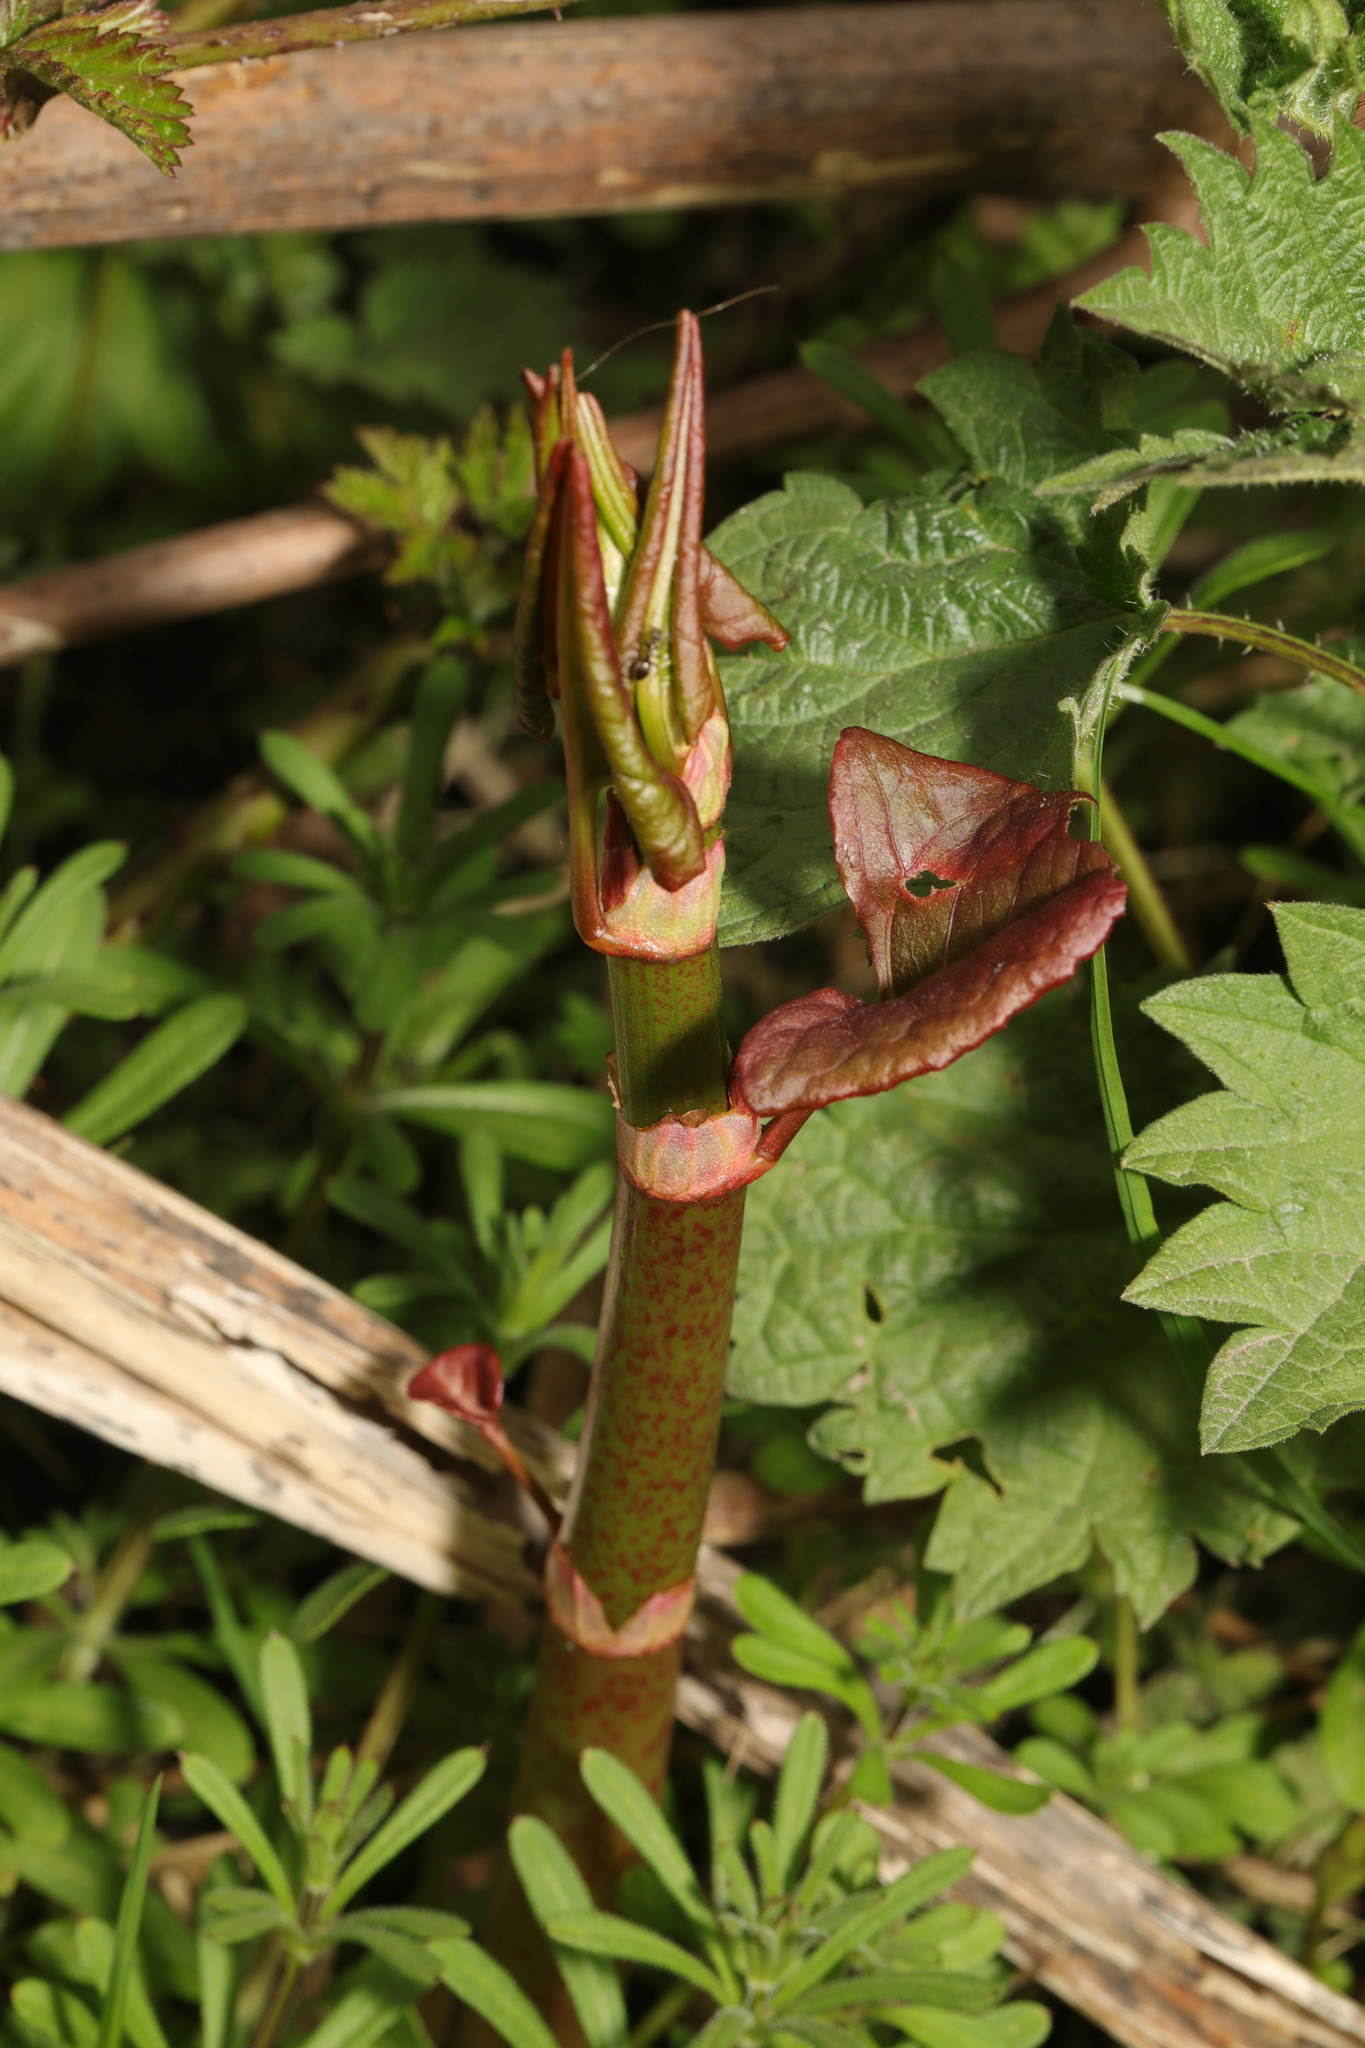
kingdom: Plantae
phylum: Tracheophyta
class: Magnoliopsida
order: Caryophyllales
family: Polygonaceae
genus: Reynoutria
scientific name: Reynoutria japonica
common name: Japanese knotweed
